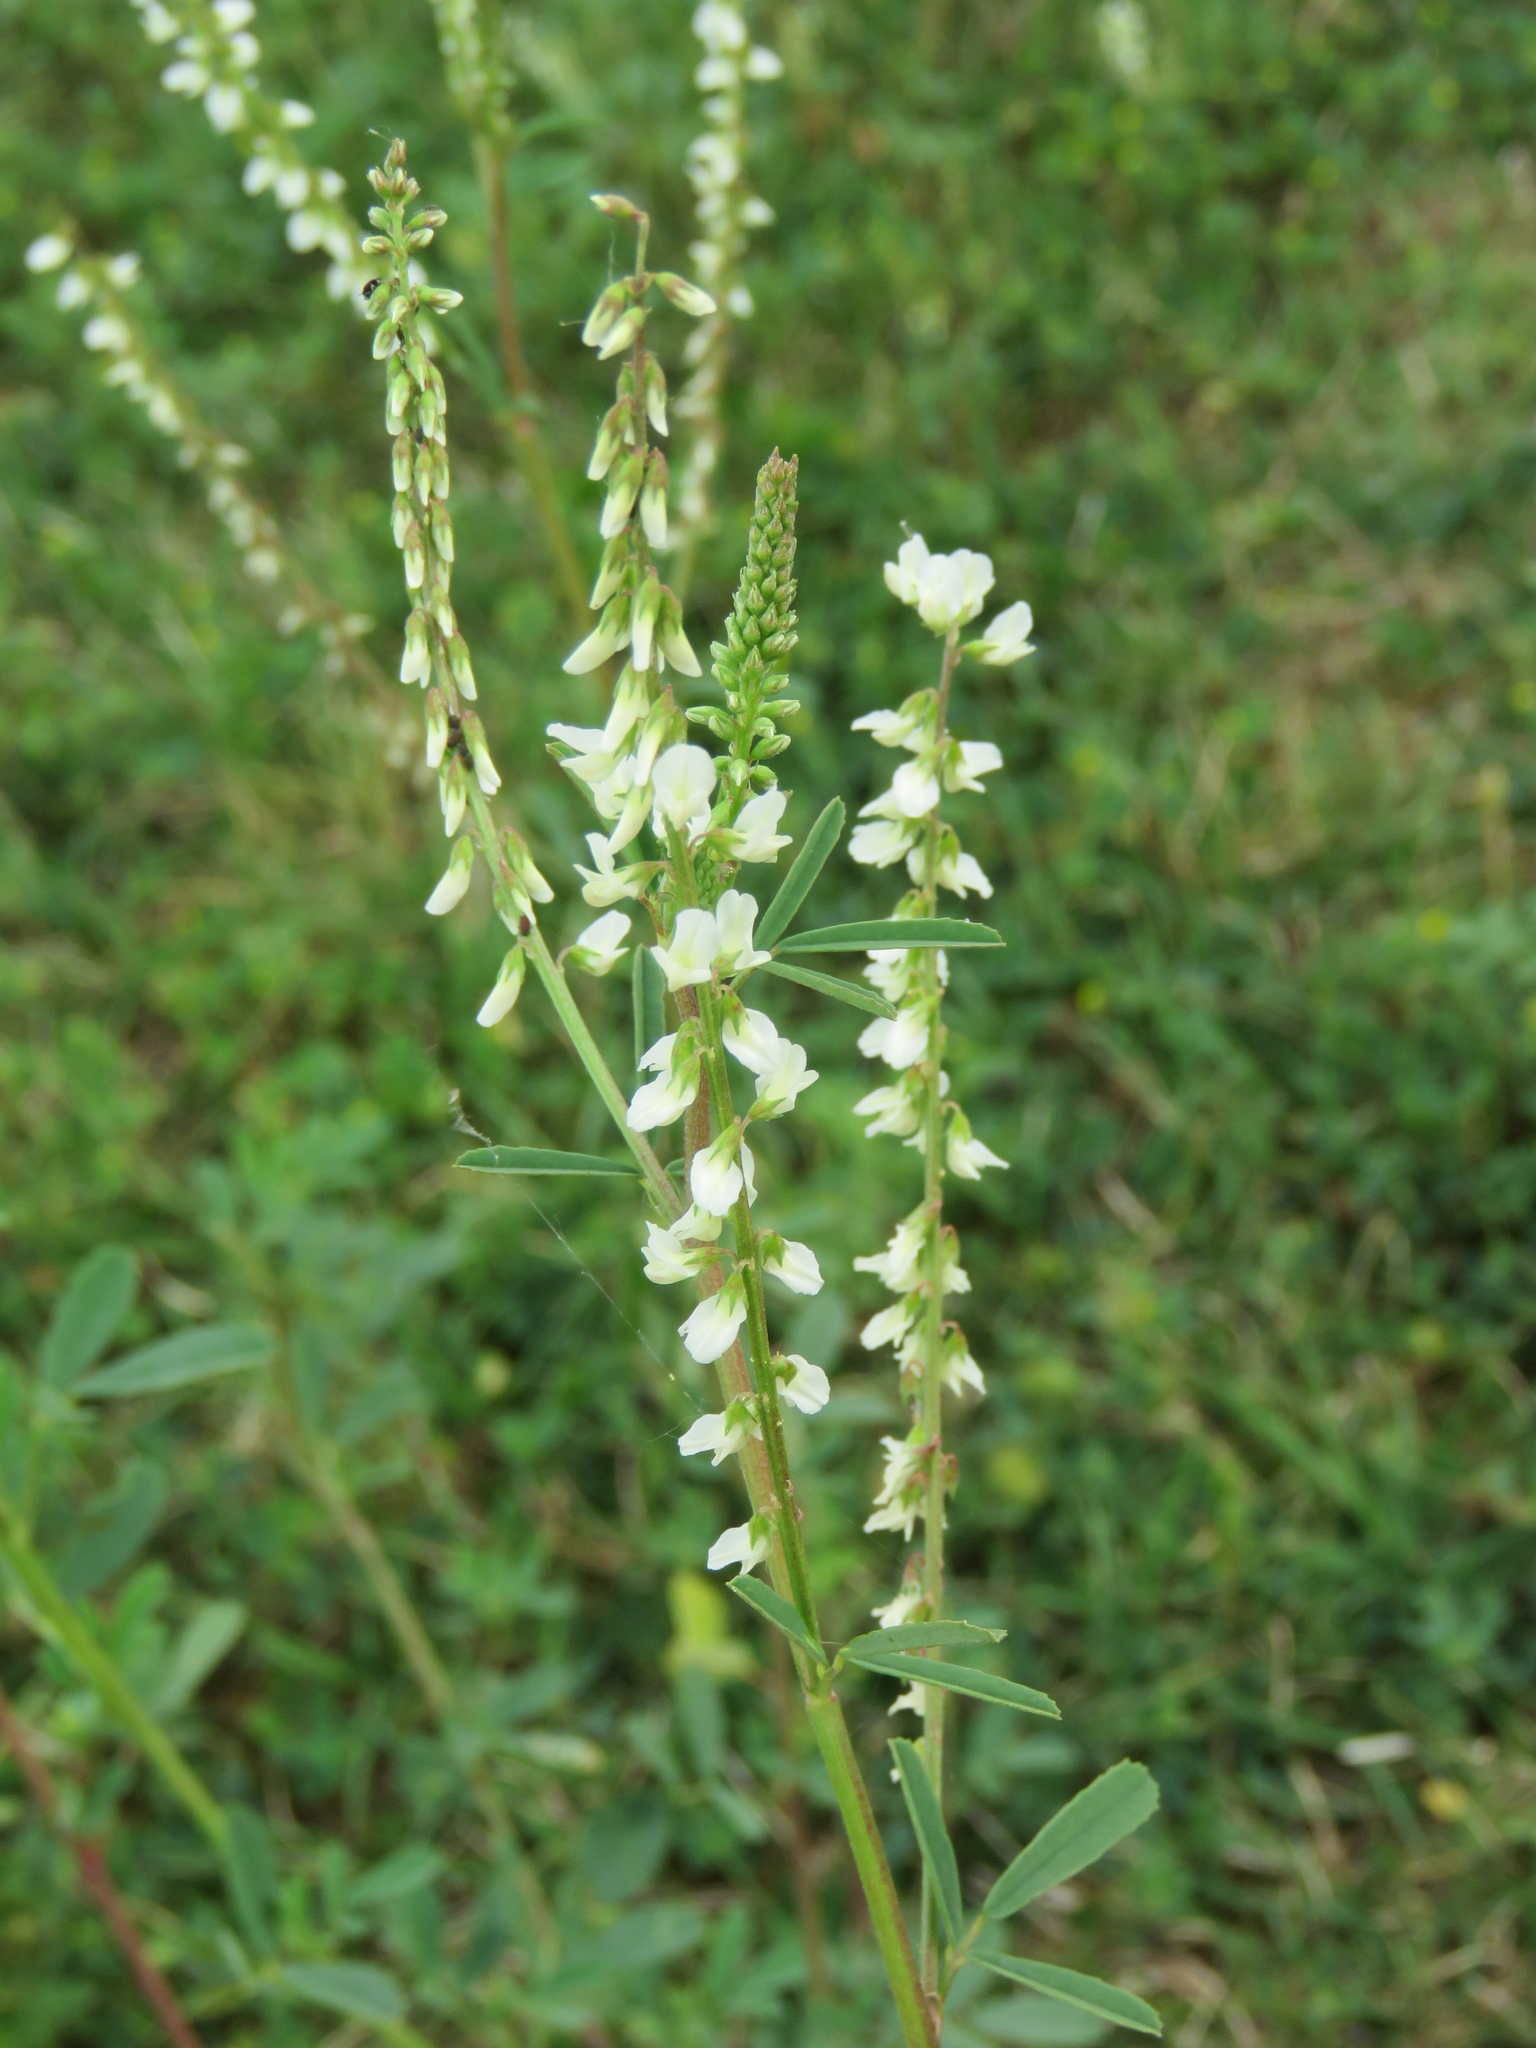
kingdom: Plantae
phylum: Tracheophyta
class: Magnoliopsida
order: Fabales
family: Fabaceae
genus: Melilotus
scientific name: Melilotus albus
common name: White melilot
